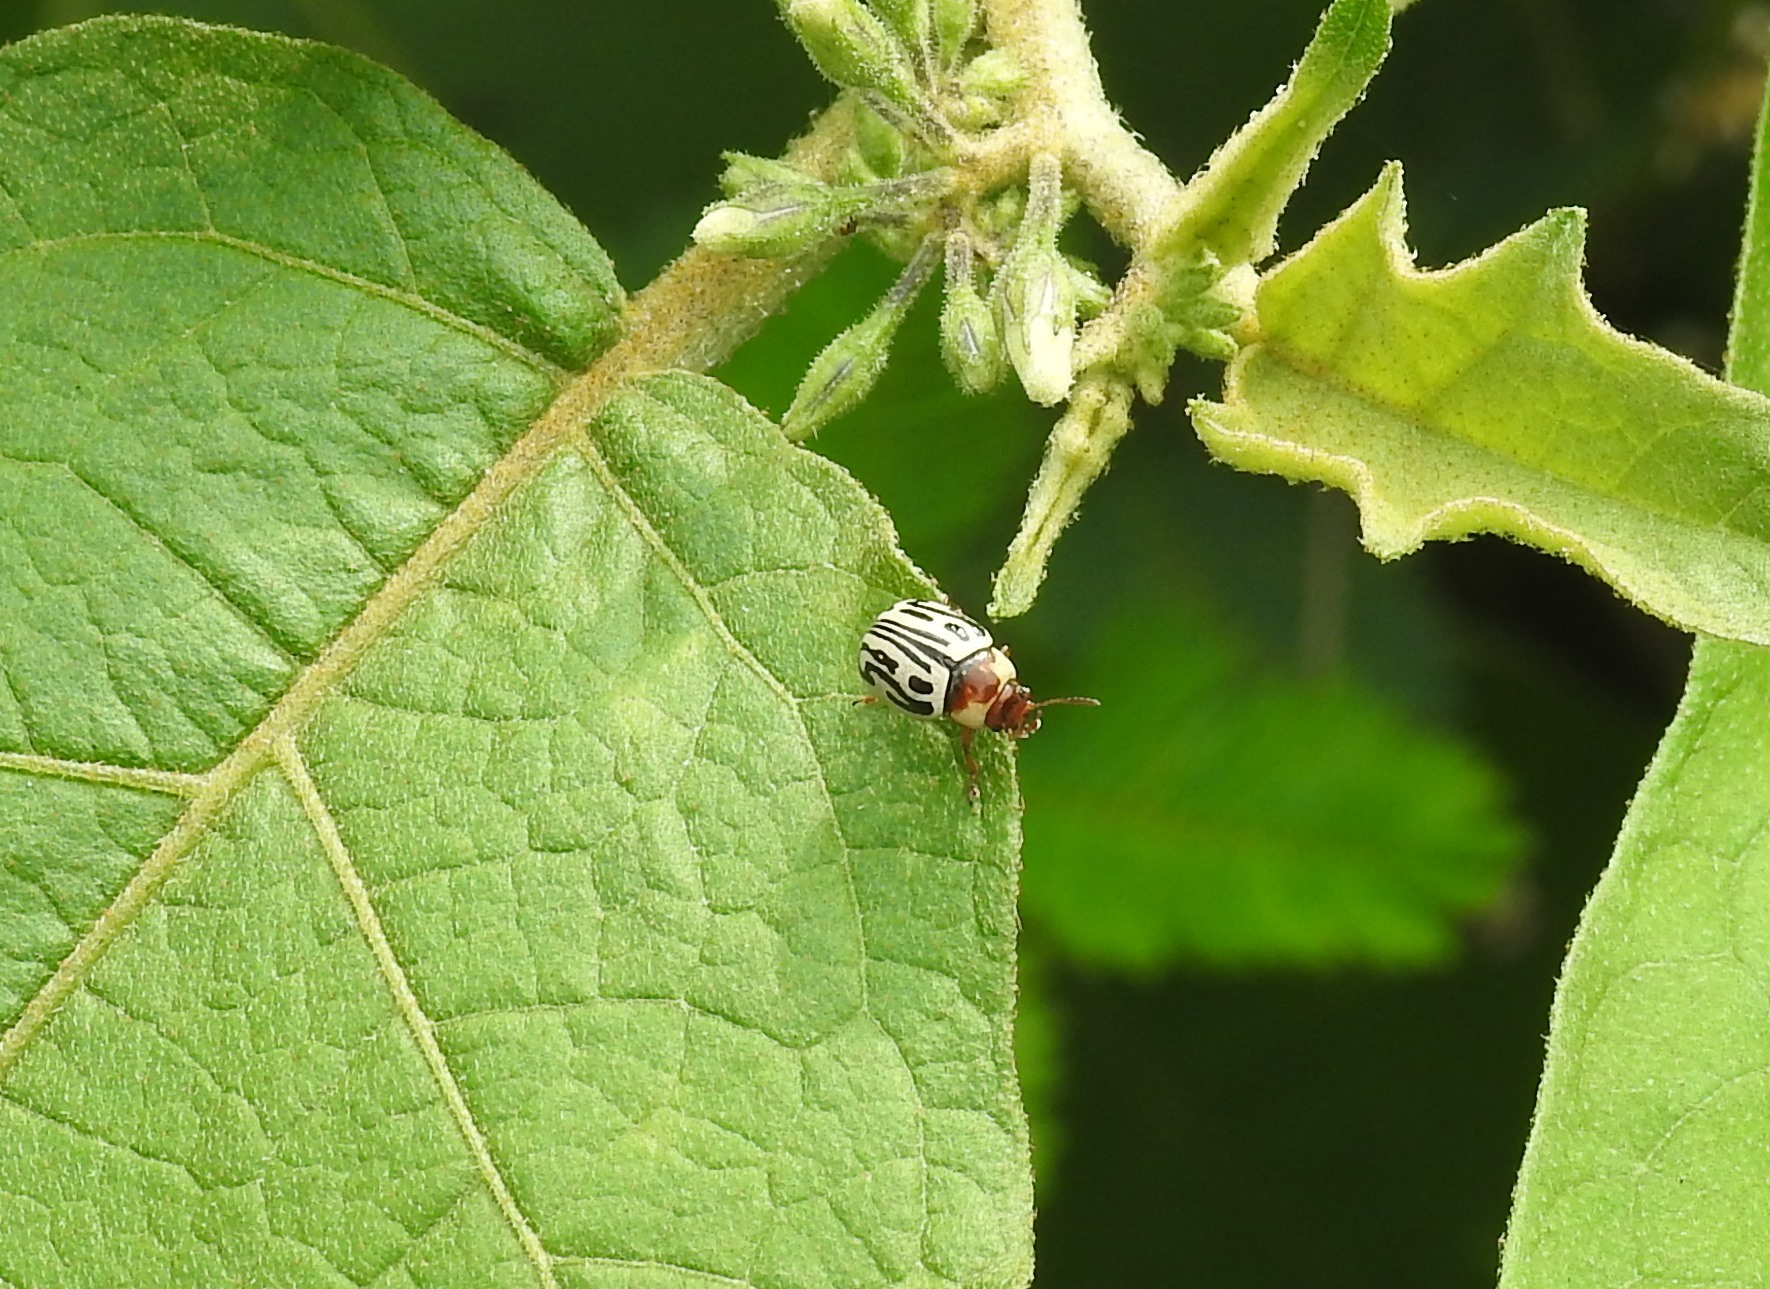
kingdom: Animalia
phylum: Arthropoda
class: Insecta
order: Coleoptera
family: Chrysomelidae
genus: Calligrapha
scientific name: Calligrapha
